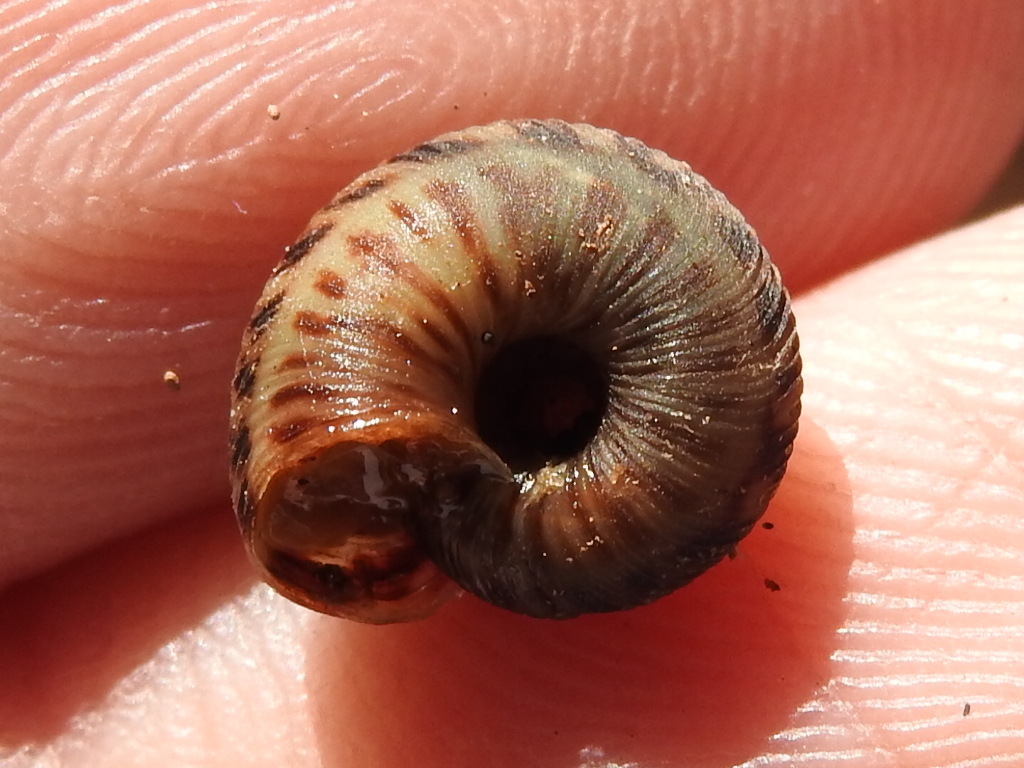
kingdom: Animalia
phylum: Mollusca
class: Gastropoda
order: Stylommatophora
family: Discidae
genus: Anguispira
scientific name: Anguispira strongylodes
